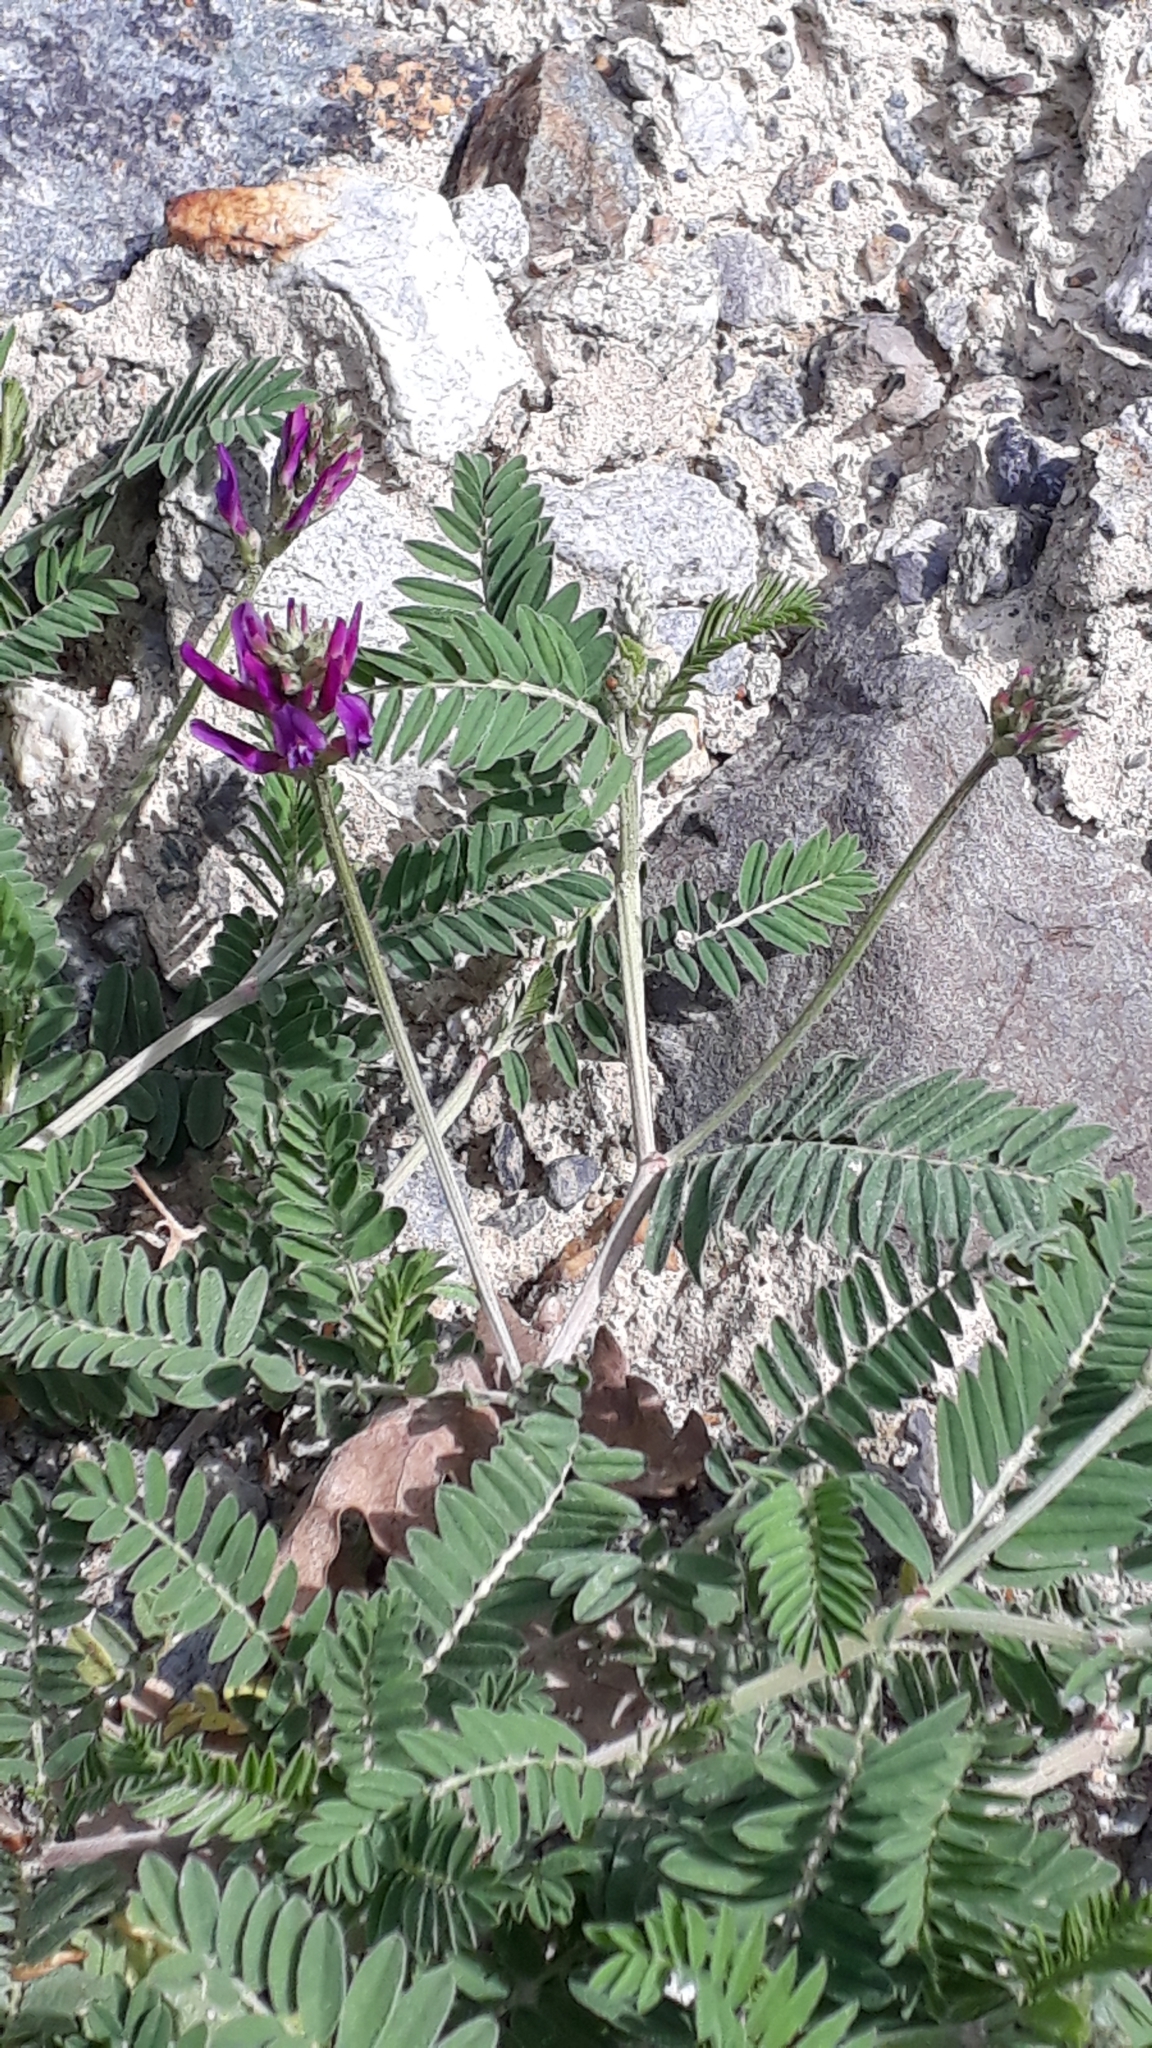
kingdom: Plantae
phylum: Tracheophyta
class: Magnoliopsida
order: Fabales
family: Fabaceae
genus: Astragalus
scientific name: Astragalus onobrychis
